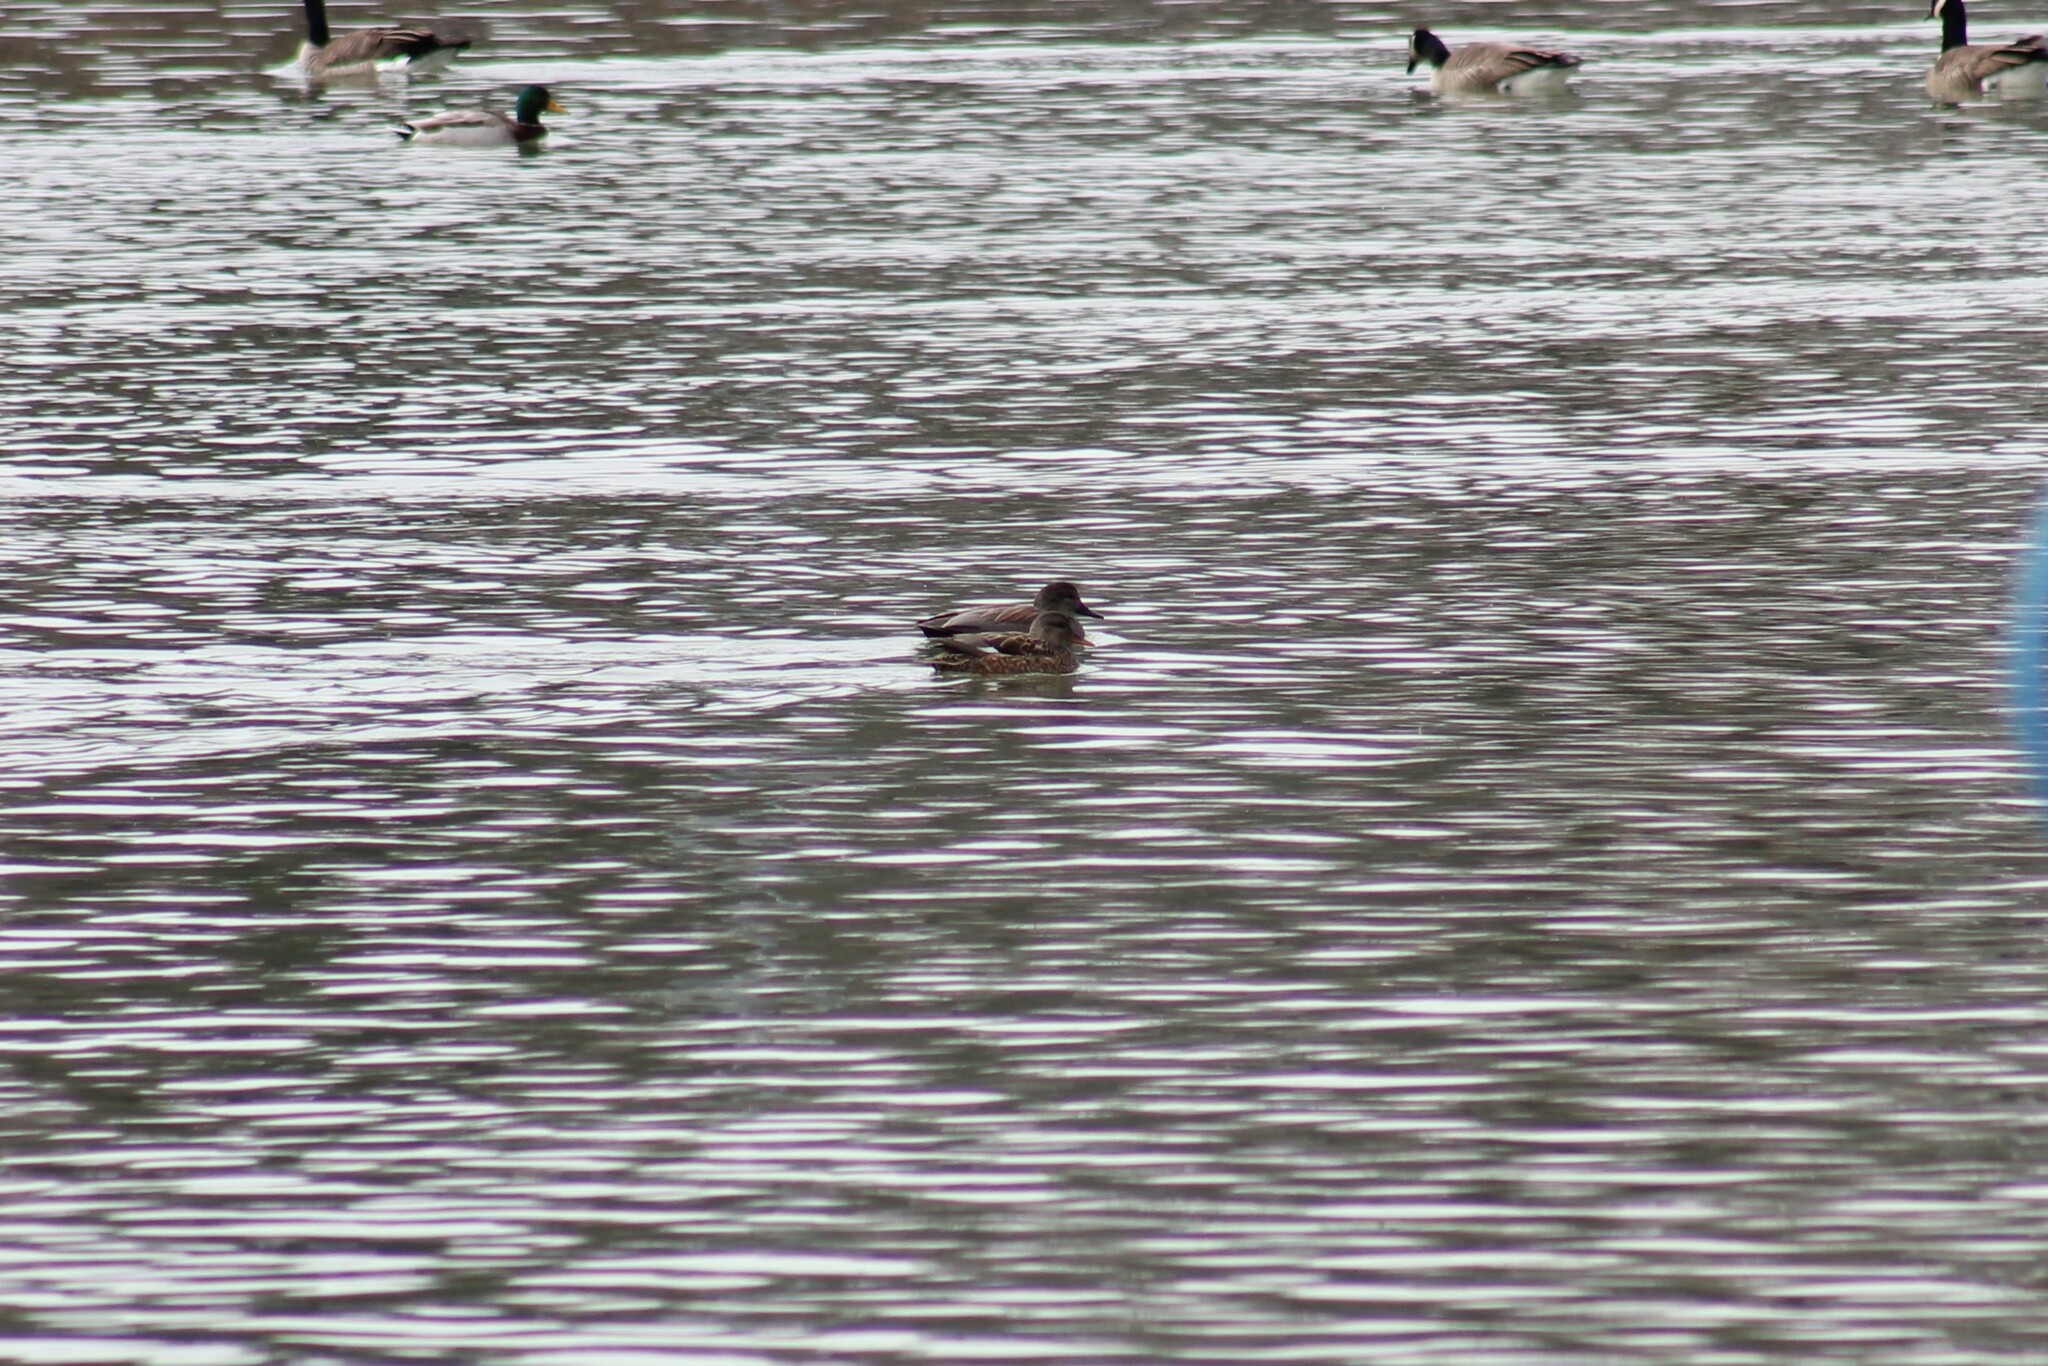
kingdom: Animalia
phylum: Chordata
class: Aves
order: Anseriformes
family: Anatidae
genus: Mareca
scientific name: Mareca strepera
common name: Gadwall
